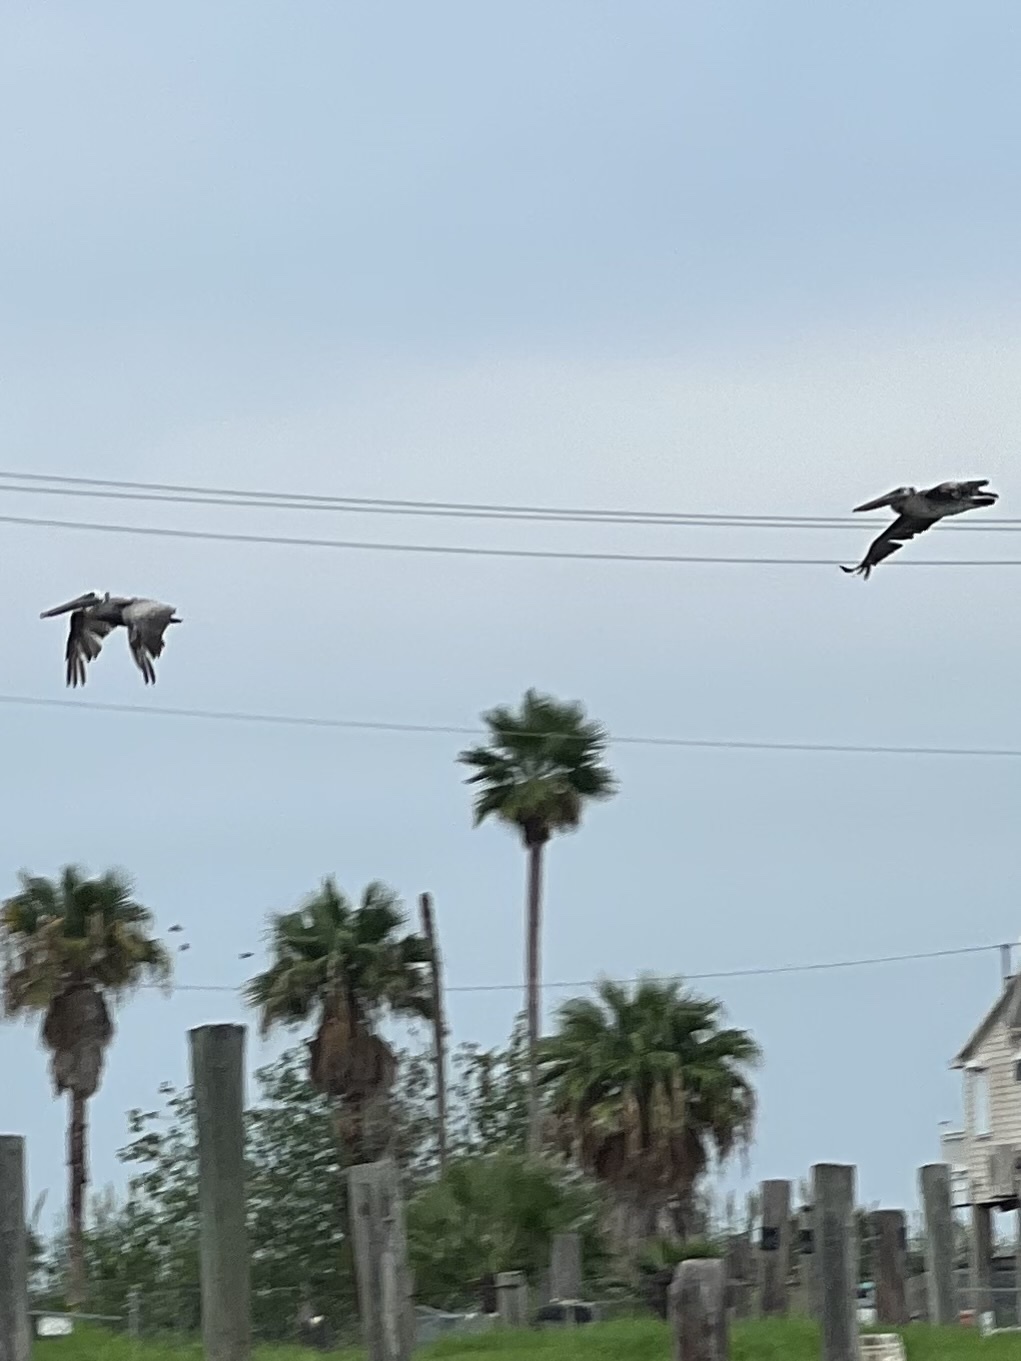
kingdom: Animalia
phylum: Chordata
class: Aves
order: Pelecaniformes
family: Pelecanidae
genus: Pelecanus
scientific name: Pelecanus occidentalis
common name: Brown pelican
